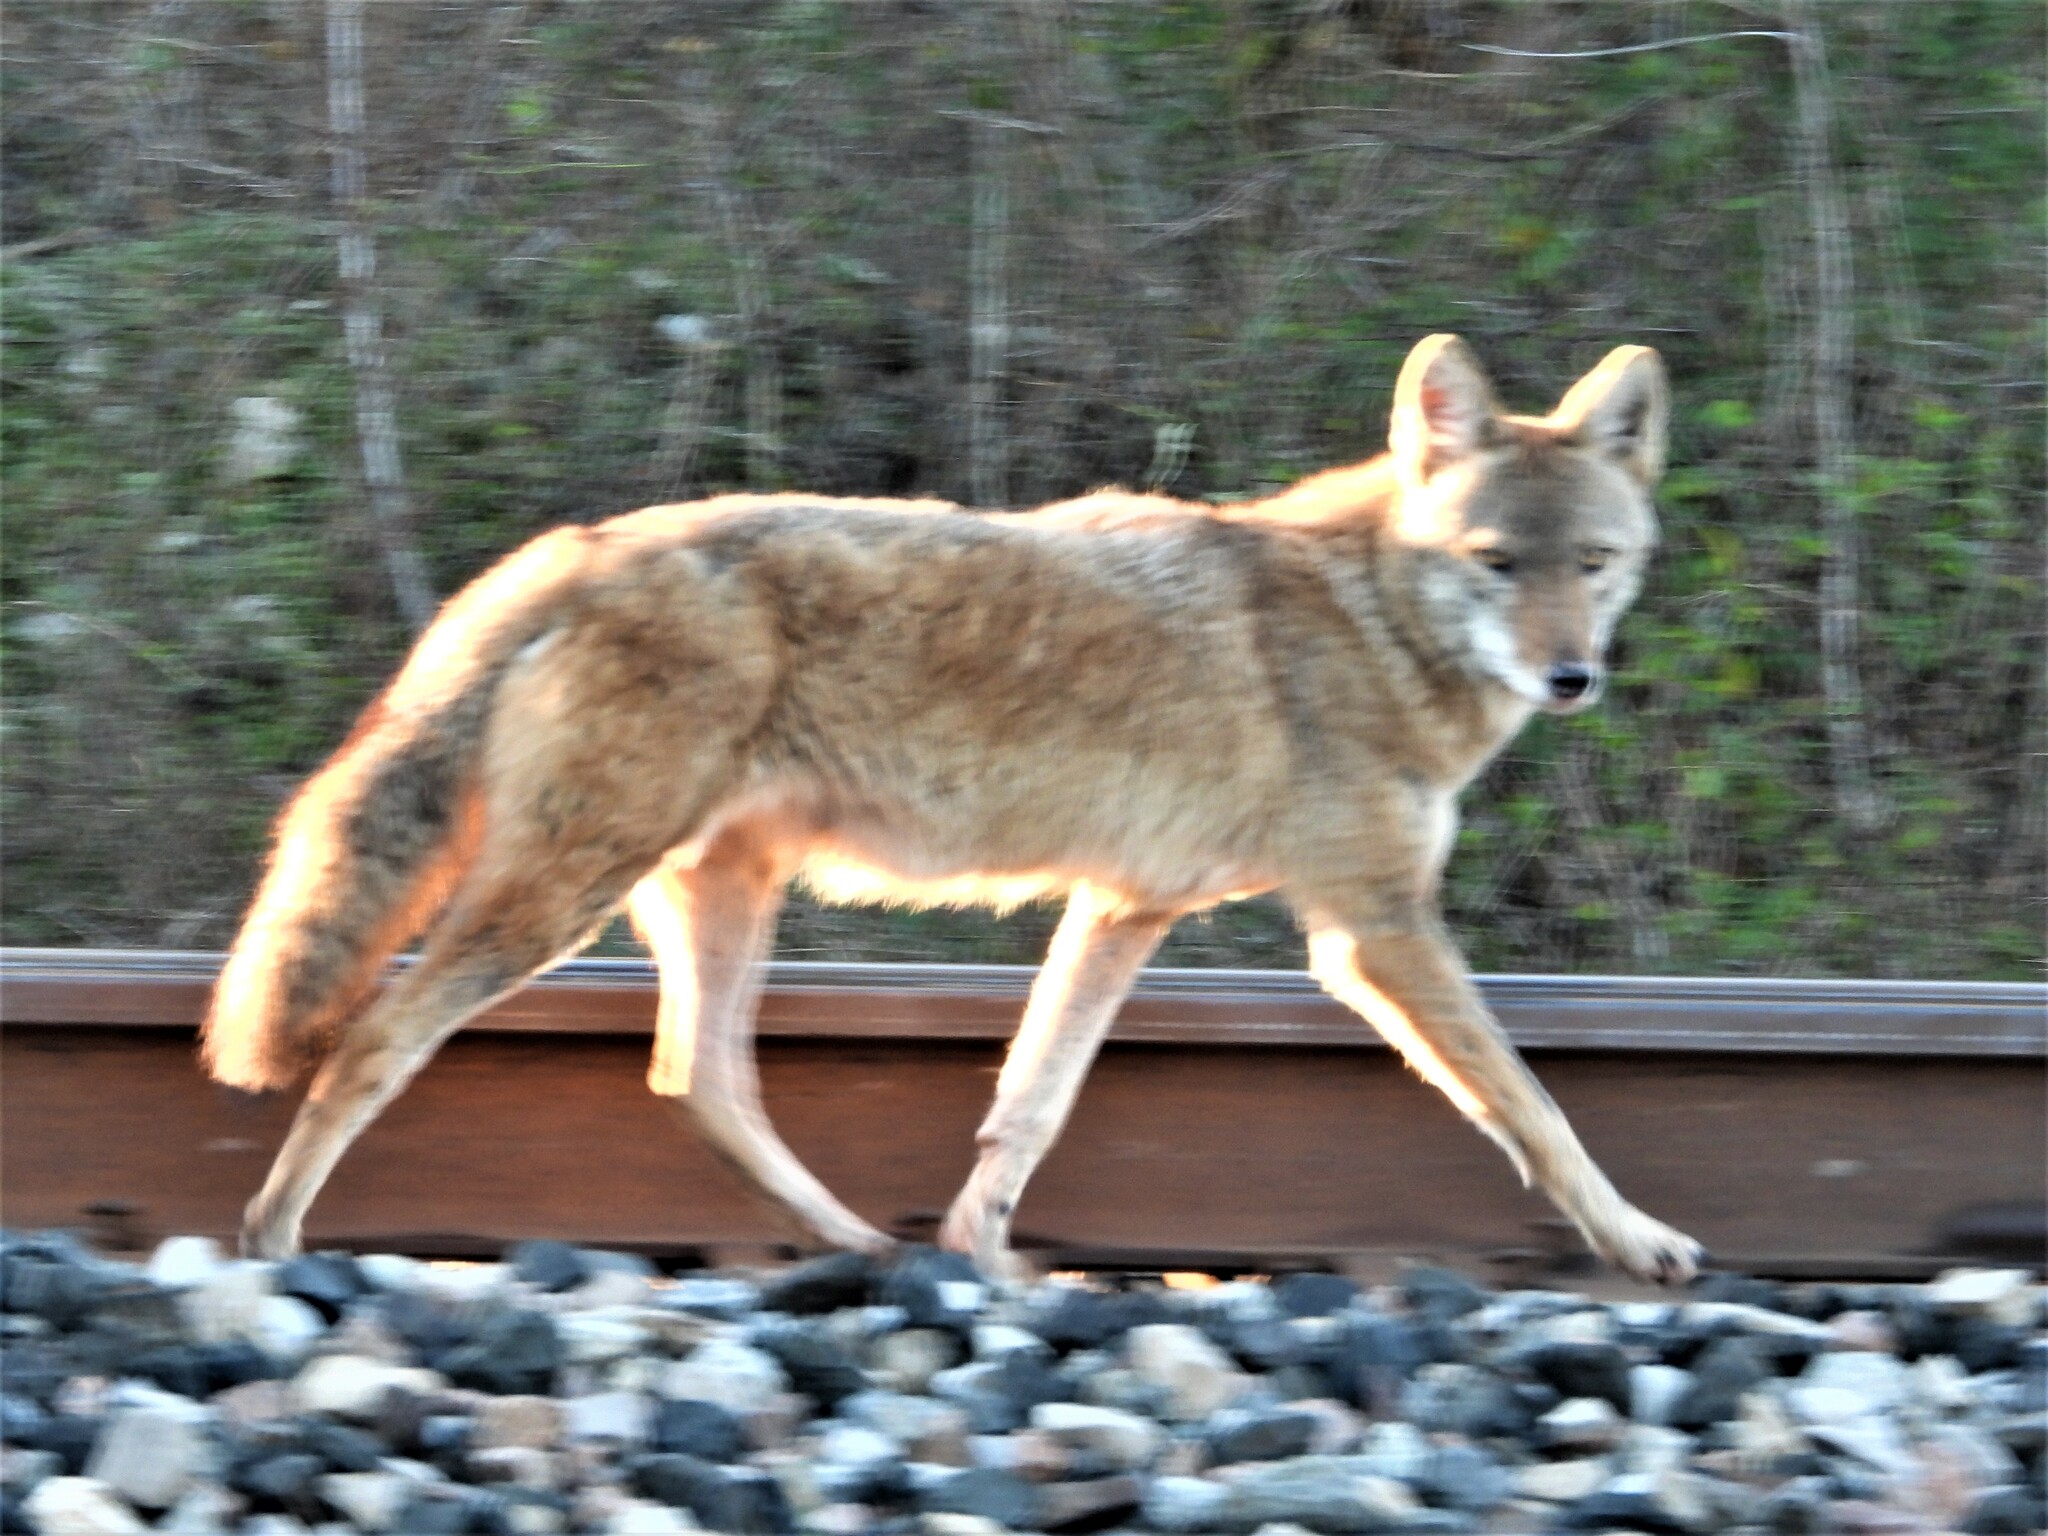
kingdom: Animalia
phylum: Chordata
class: Mammalia
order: Carnivora
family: Canidae
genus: Canis
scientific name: Canis latrans
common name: Coyote
